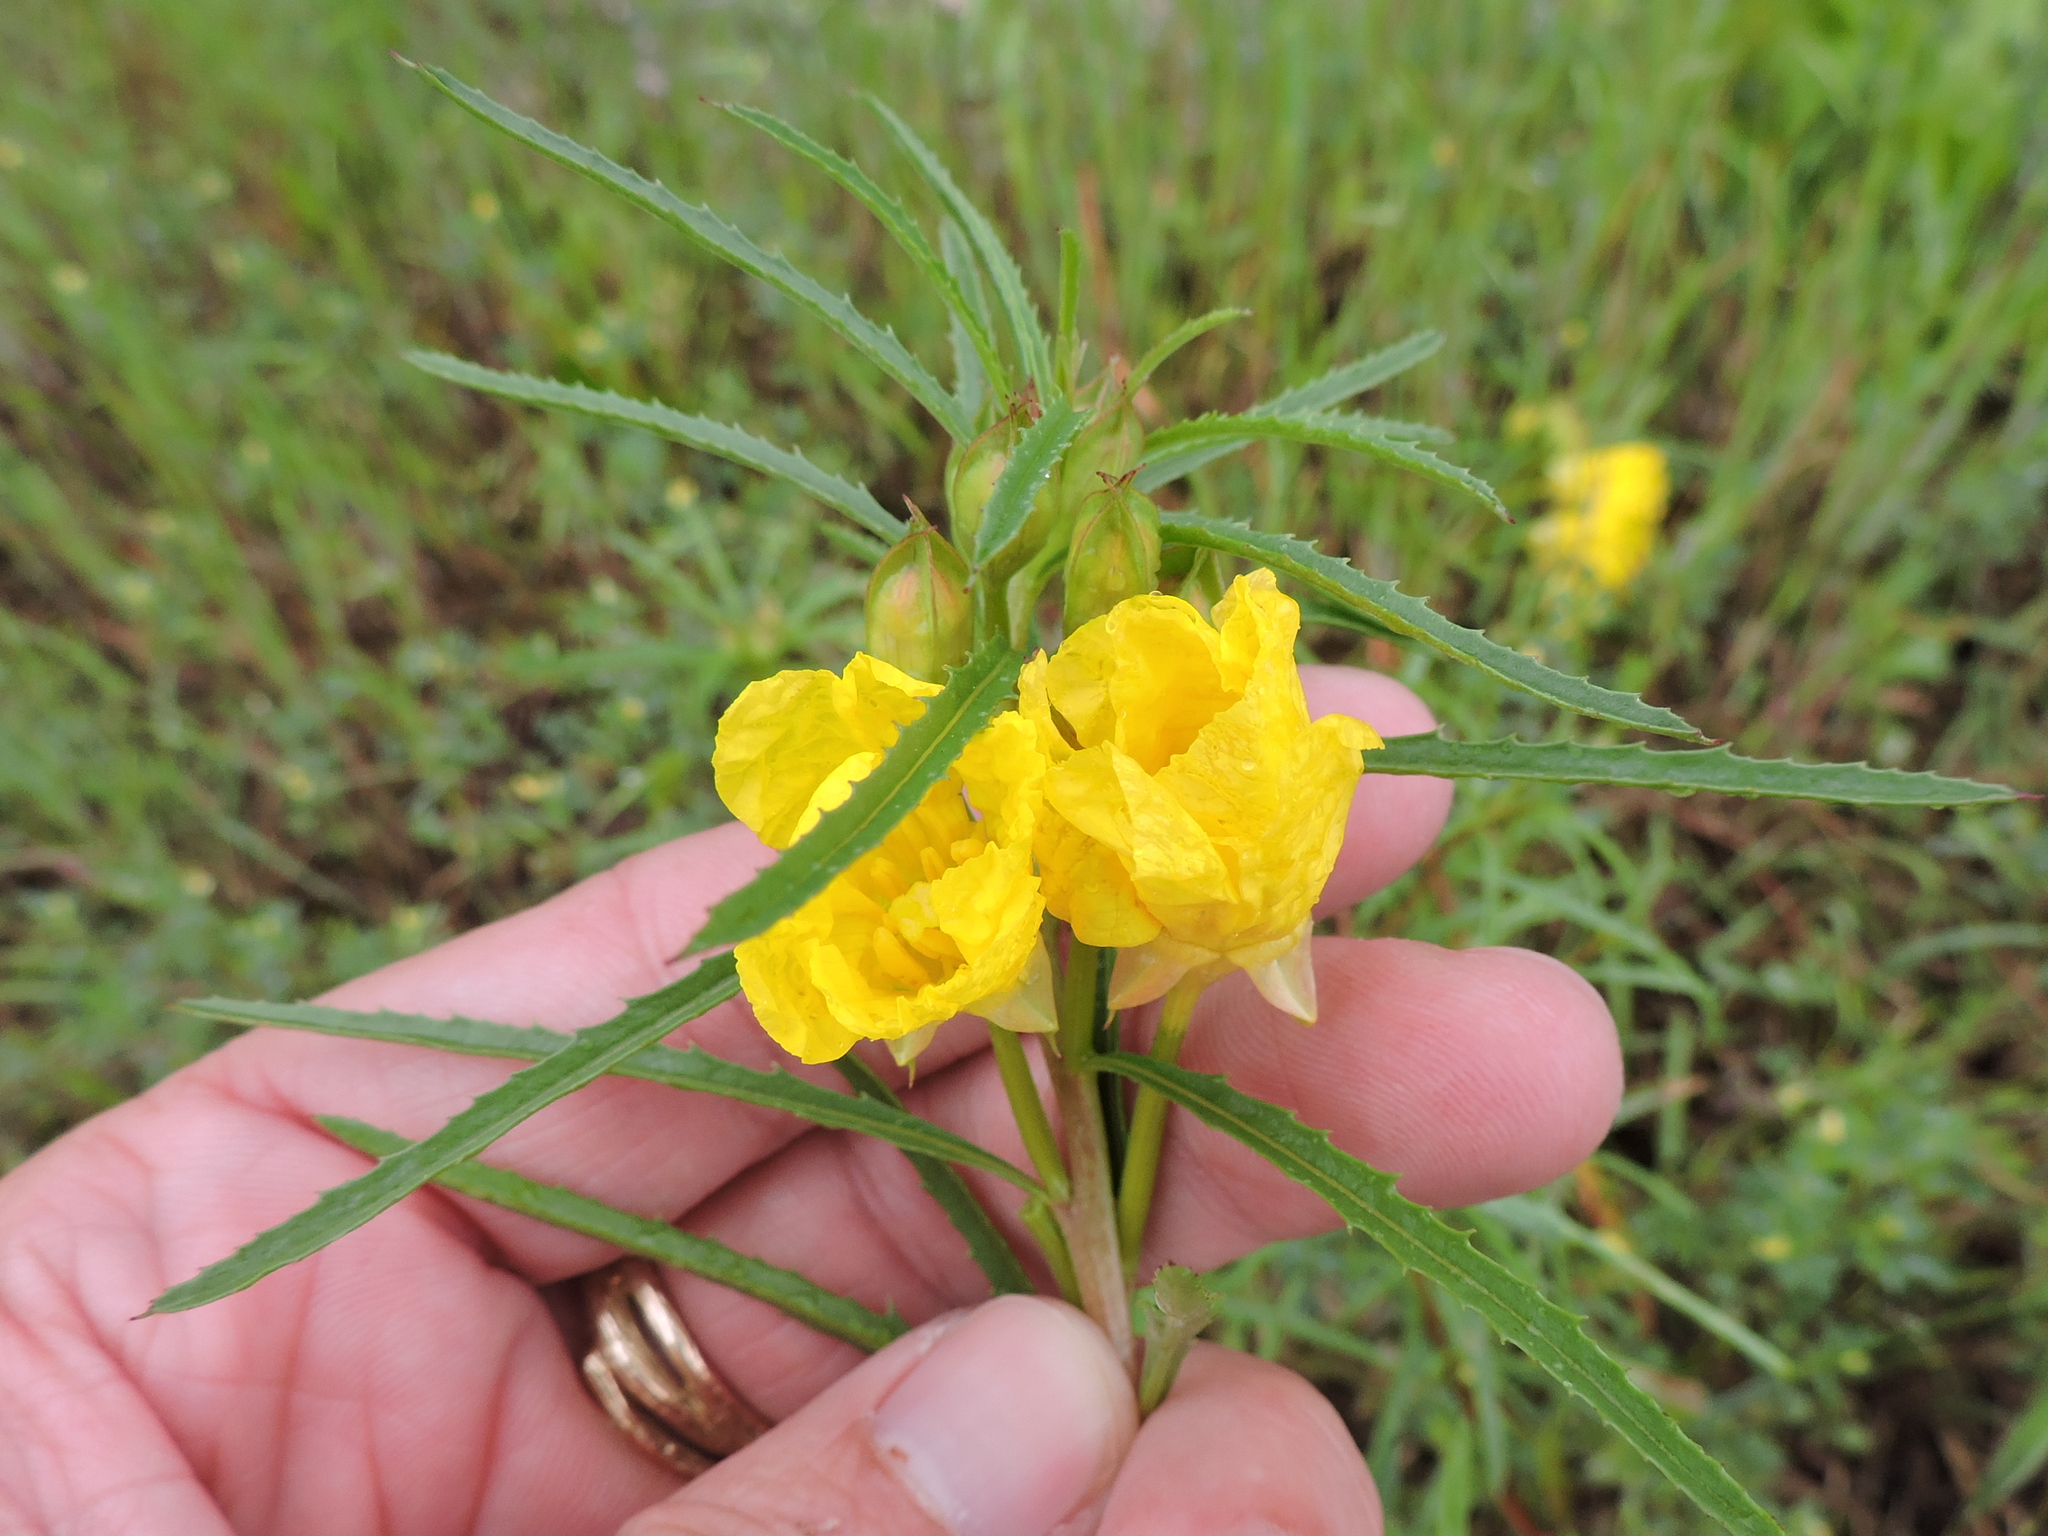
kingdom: Plantae
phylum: Tracheophyta
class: Magnoliopsida
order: Myrtales
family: Onagraceae
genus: Oenothera
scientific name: Oenothera
